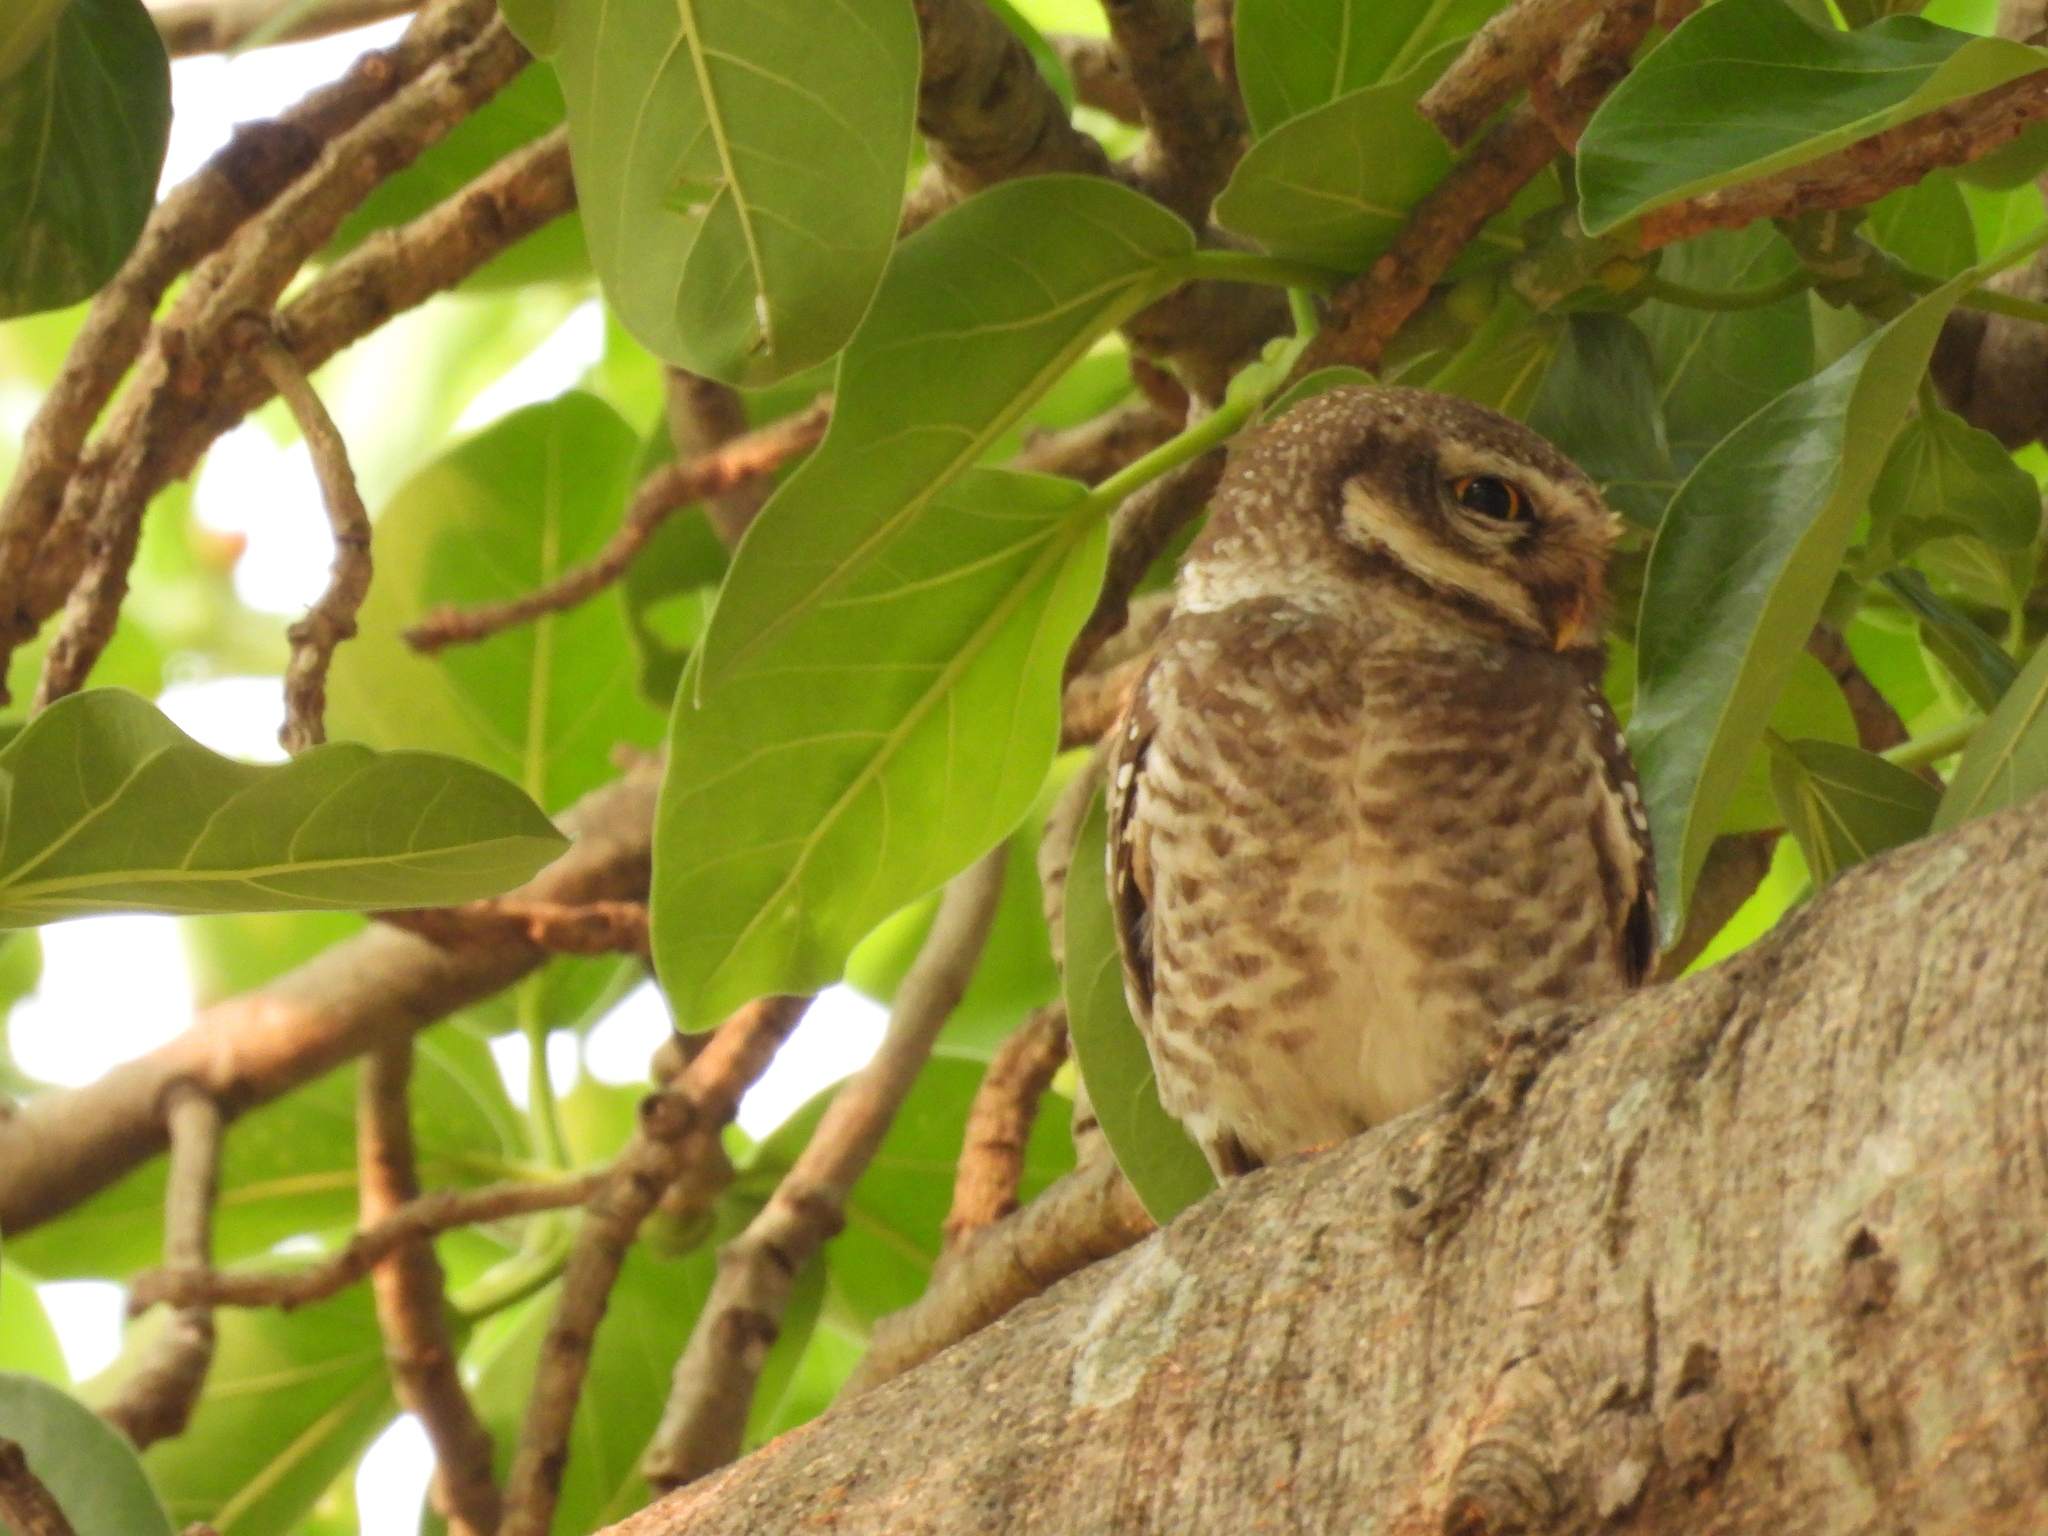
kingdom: Animalia
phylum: Chordata
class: Aves
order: Strigiformes
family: Strigidae
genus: Athene
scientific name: Athene brama
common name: Spotted owlet
